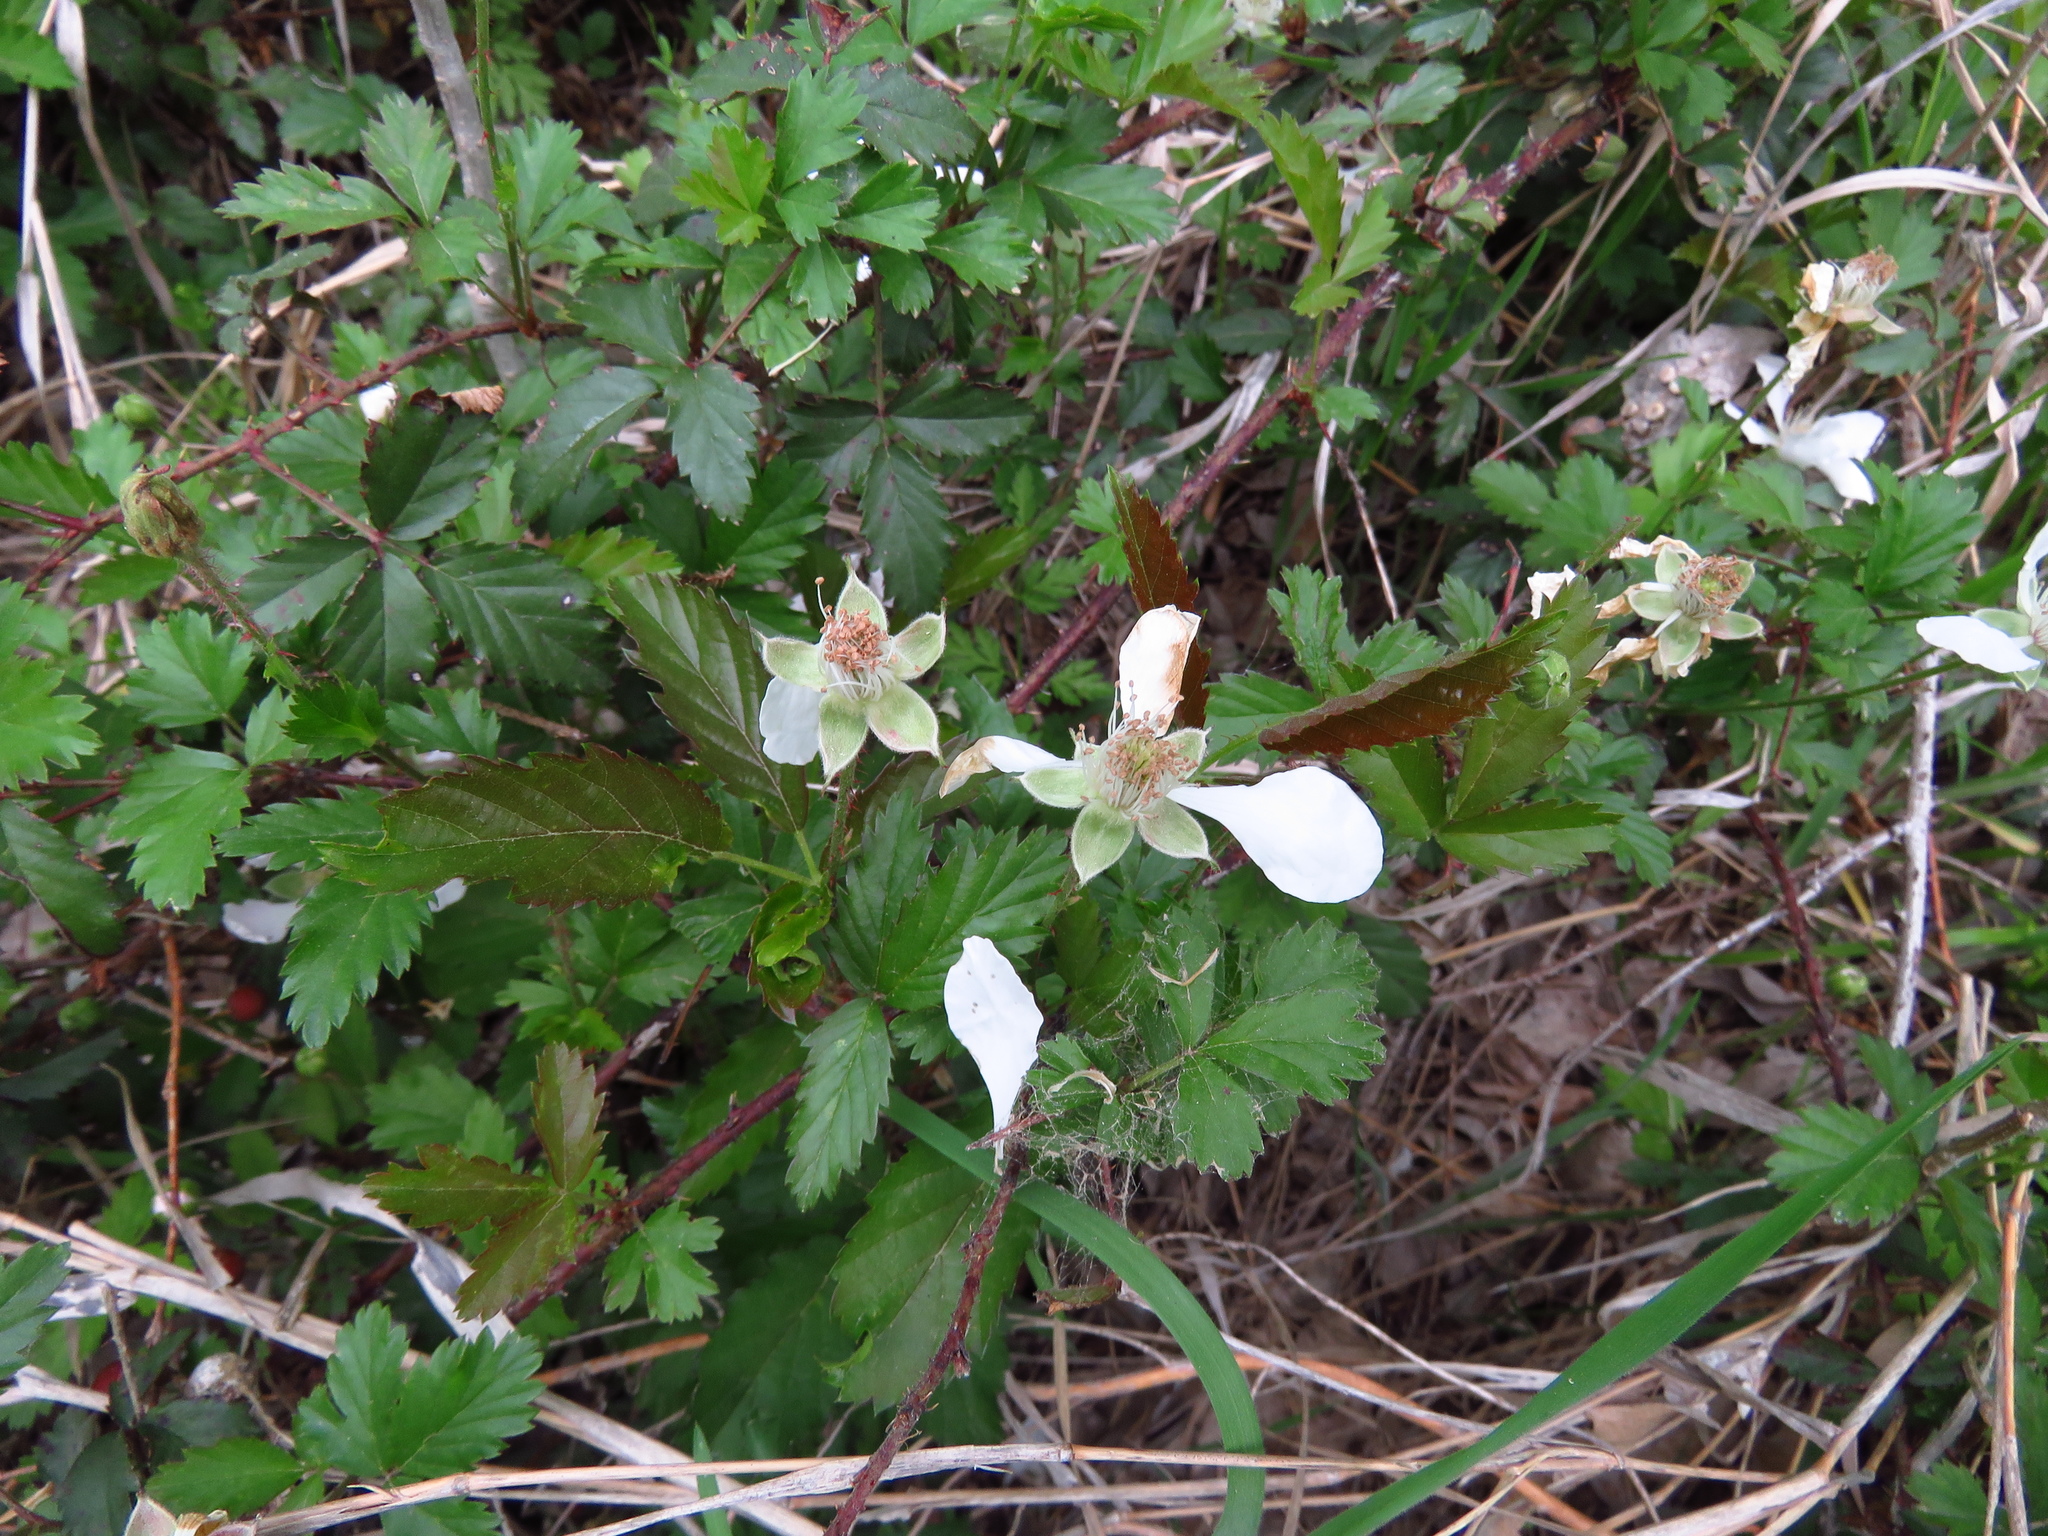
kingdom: Plantae
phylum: Tracheophyta
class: Magnoliopsida
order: Rosales
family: Rosaceae
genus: Rubus
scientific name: Rubus trivialis
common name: Southern dewberry
